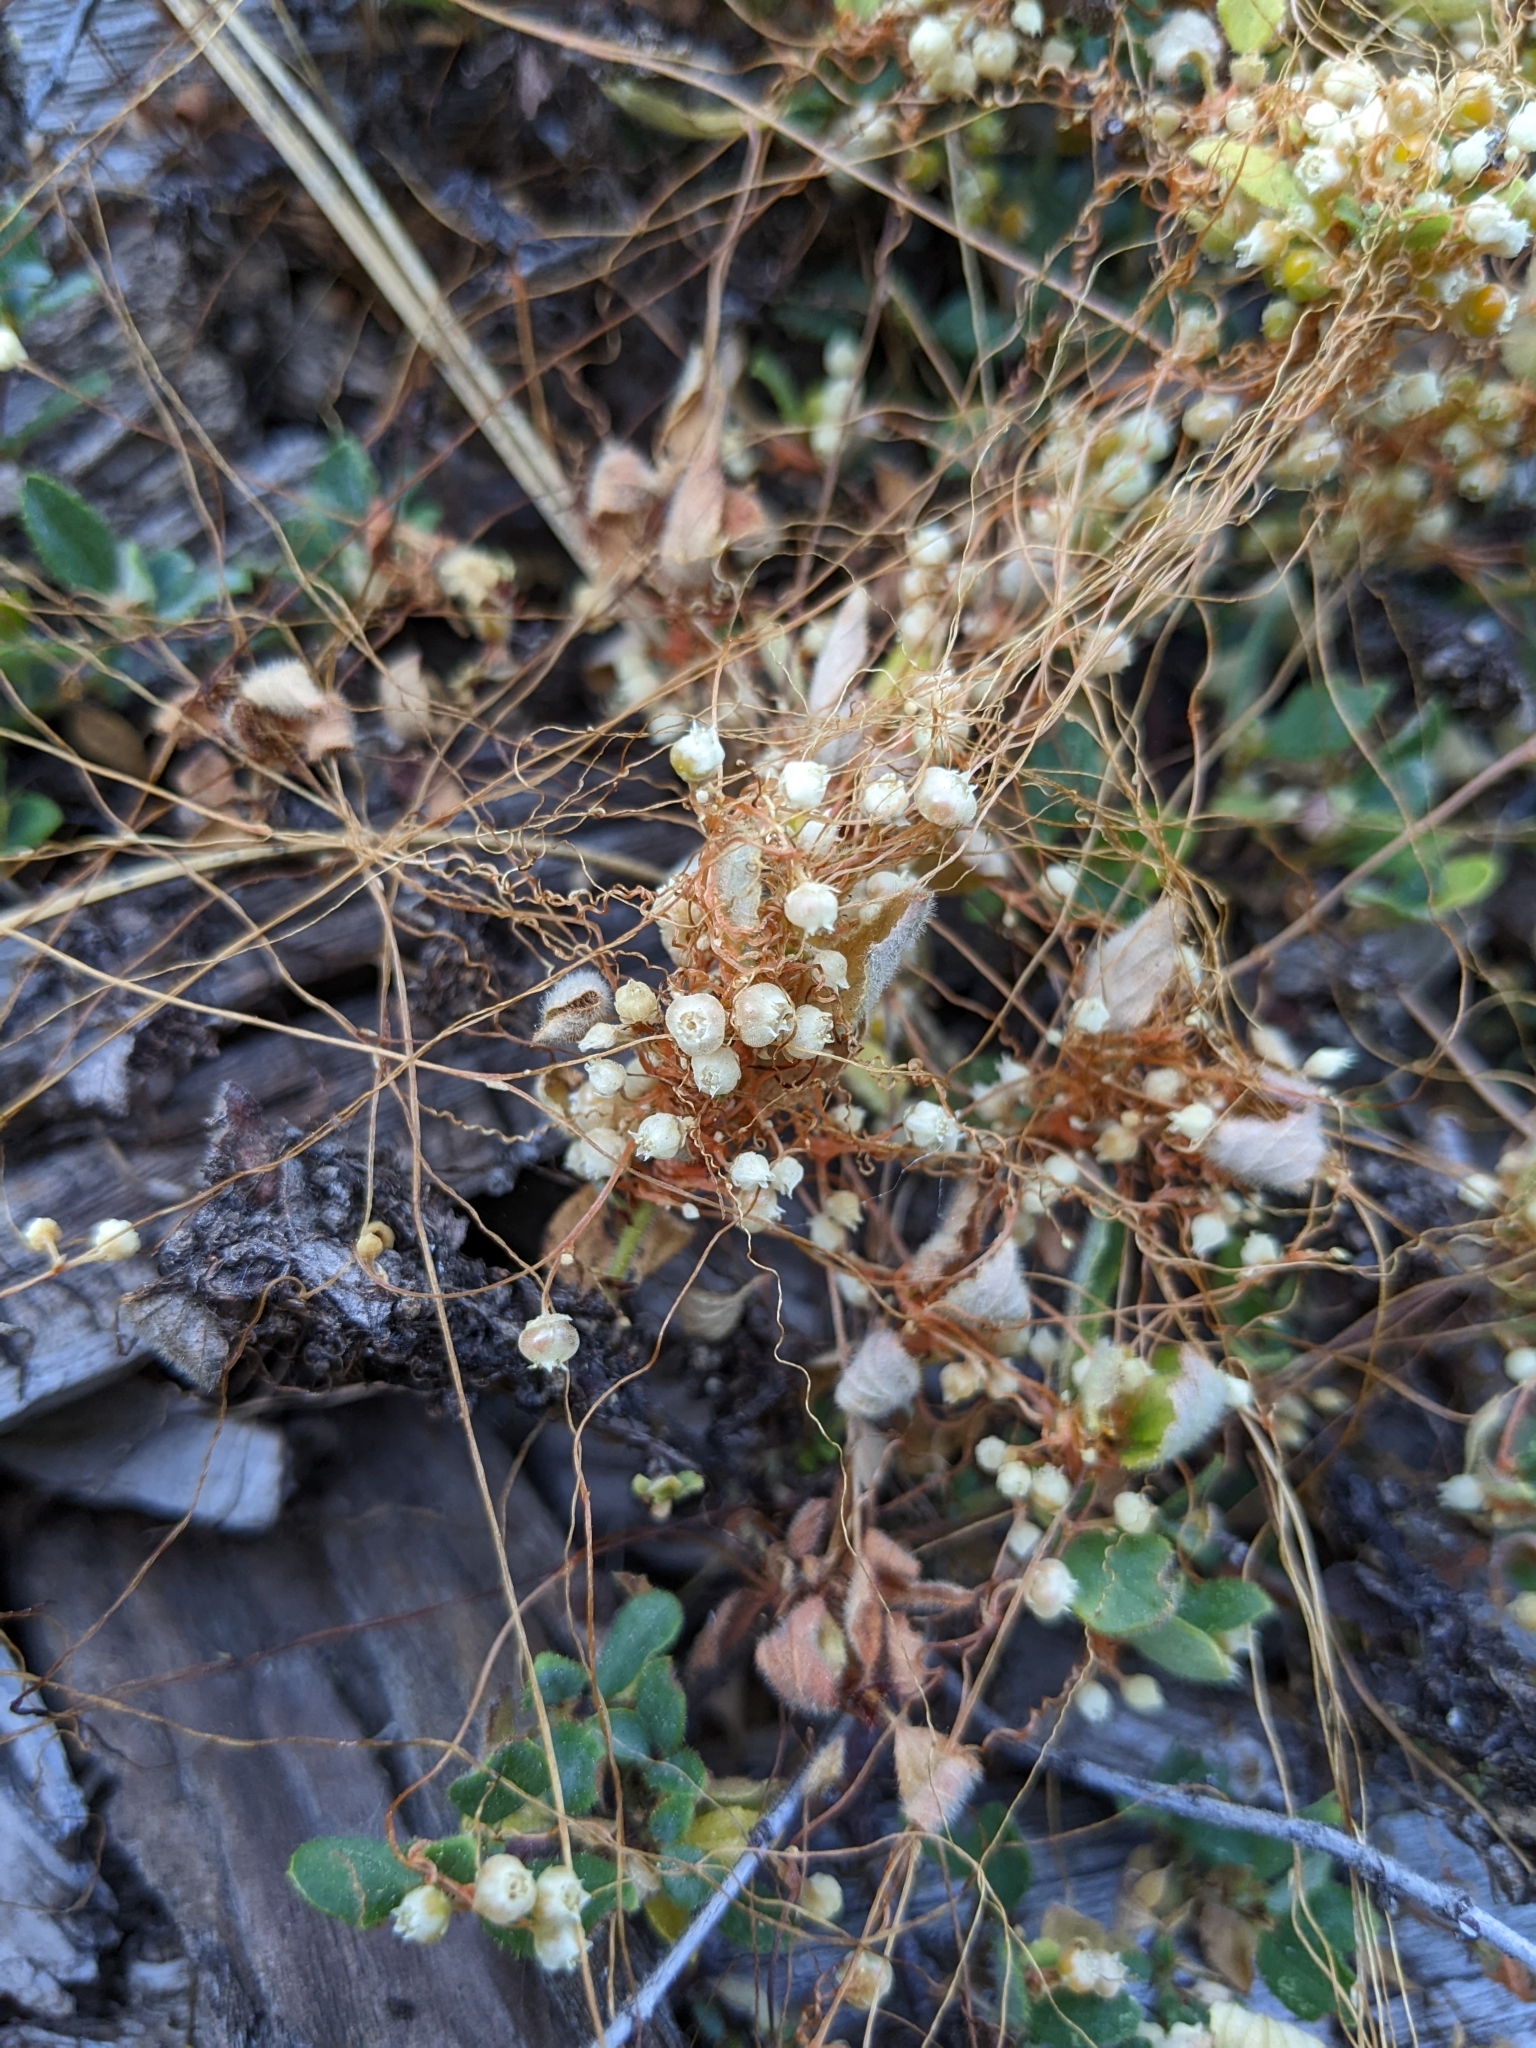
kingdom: Plantae
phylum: Tracheophyta
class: Magnoliopsida
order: Solanales
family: Convolvulaceae
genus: Cuscuta
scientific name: Cuscuta indecora
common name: Large-seed dodder
